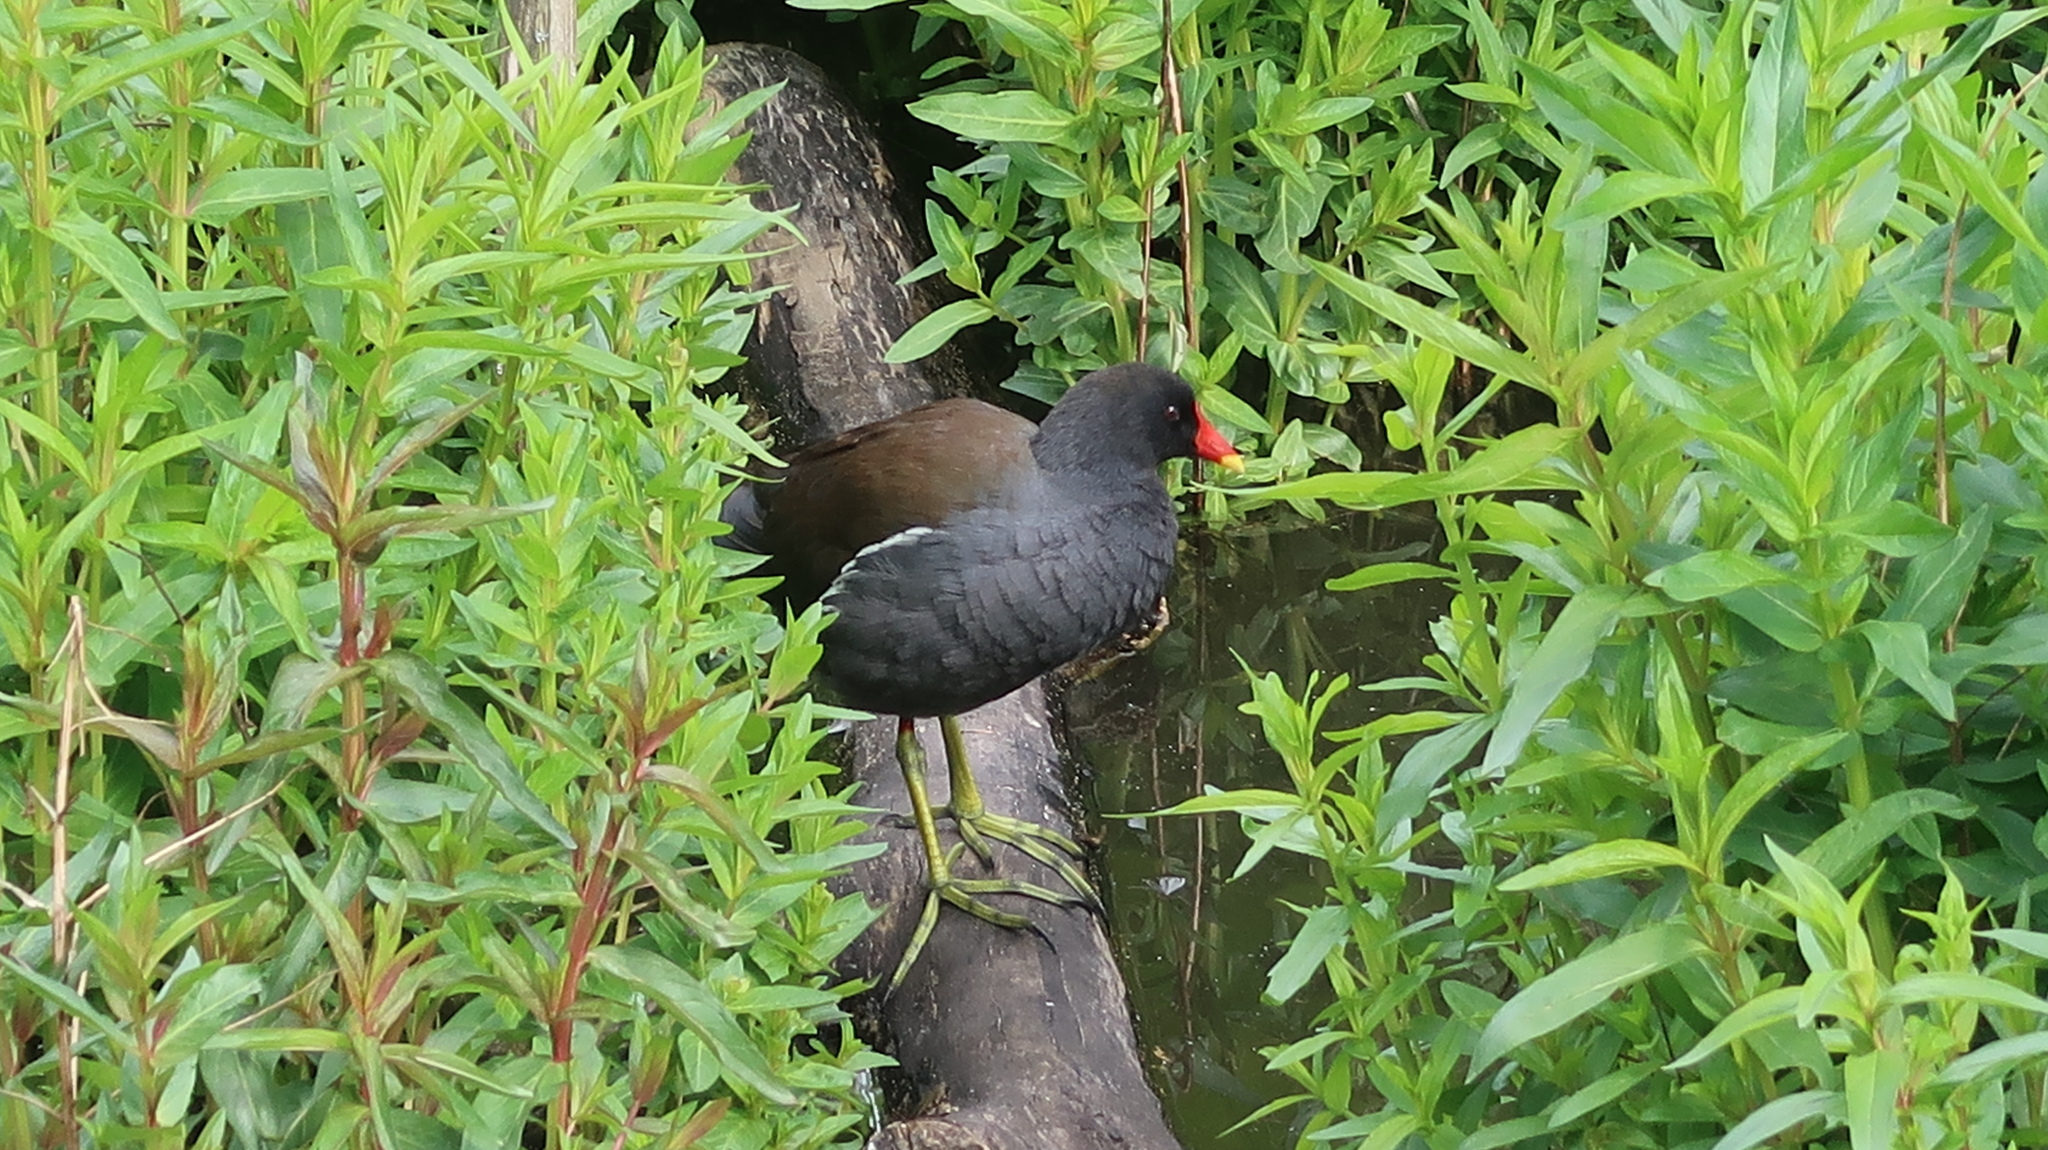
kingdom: Animalia
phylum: Chordata
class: Aves
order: Gruiformes
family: Rallidae
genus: Gallinula
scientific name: Gallinula chloropus
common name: Common moorhen
